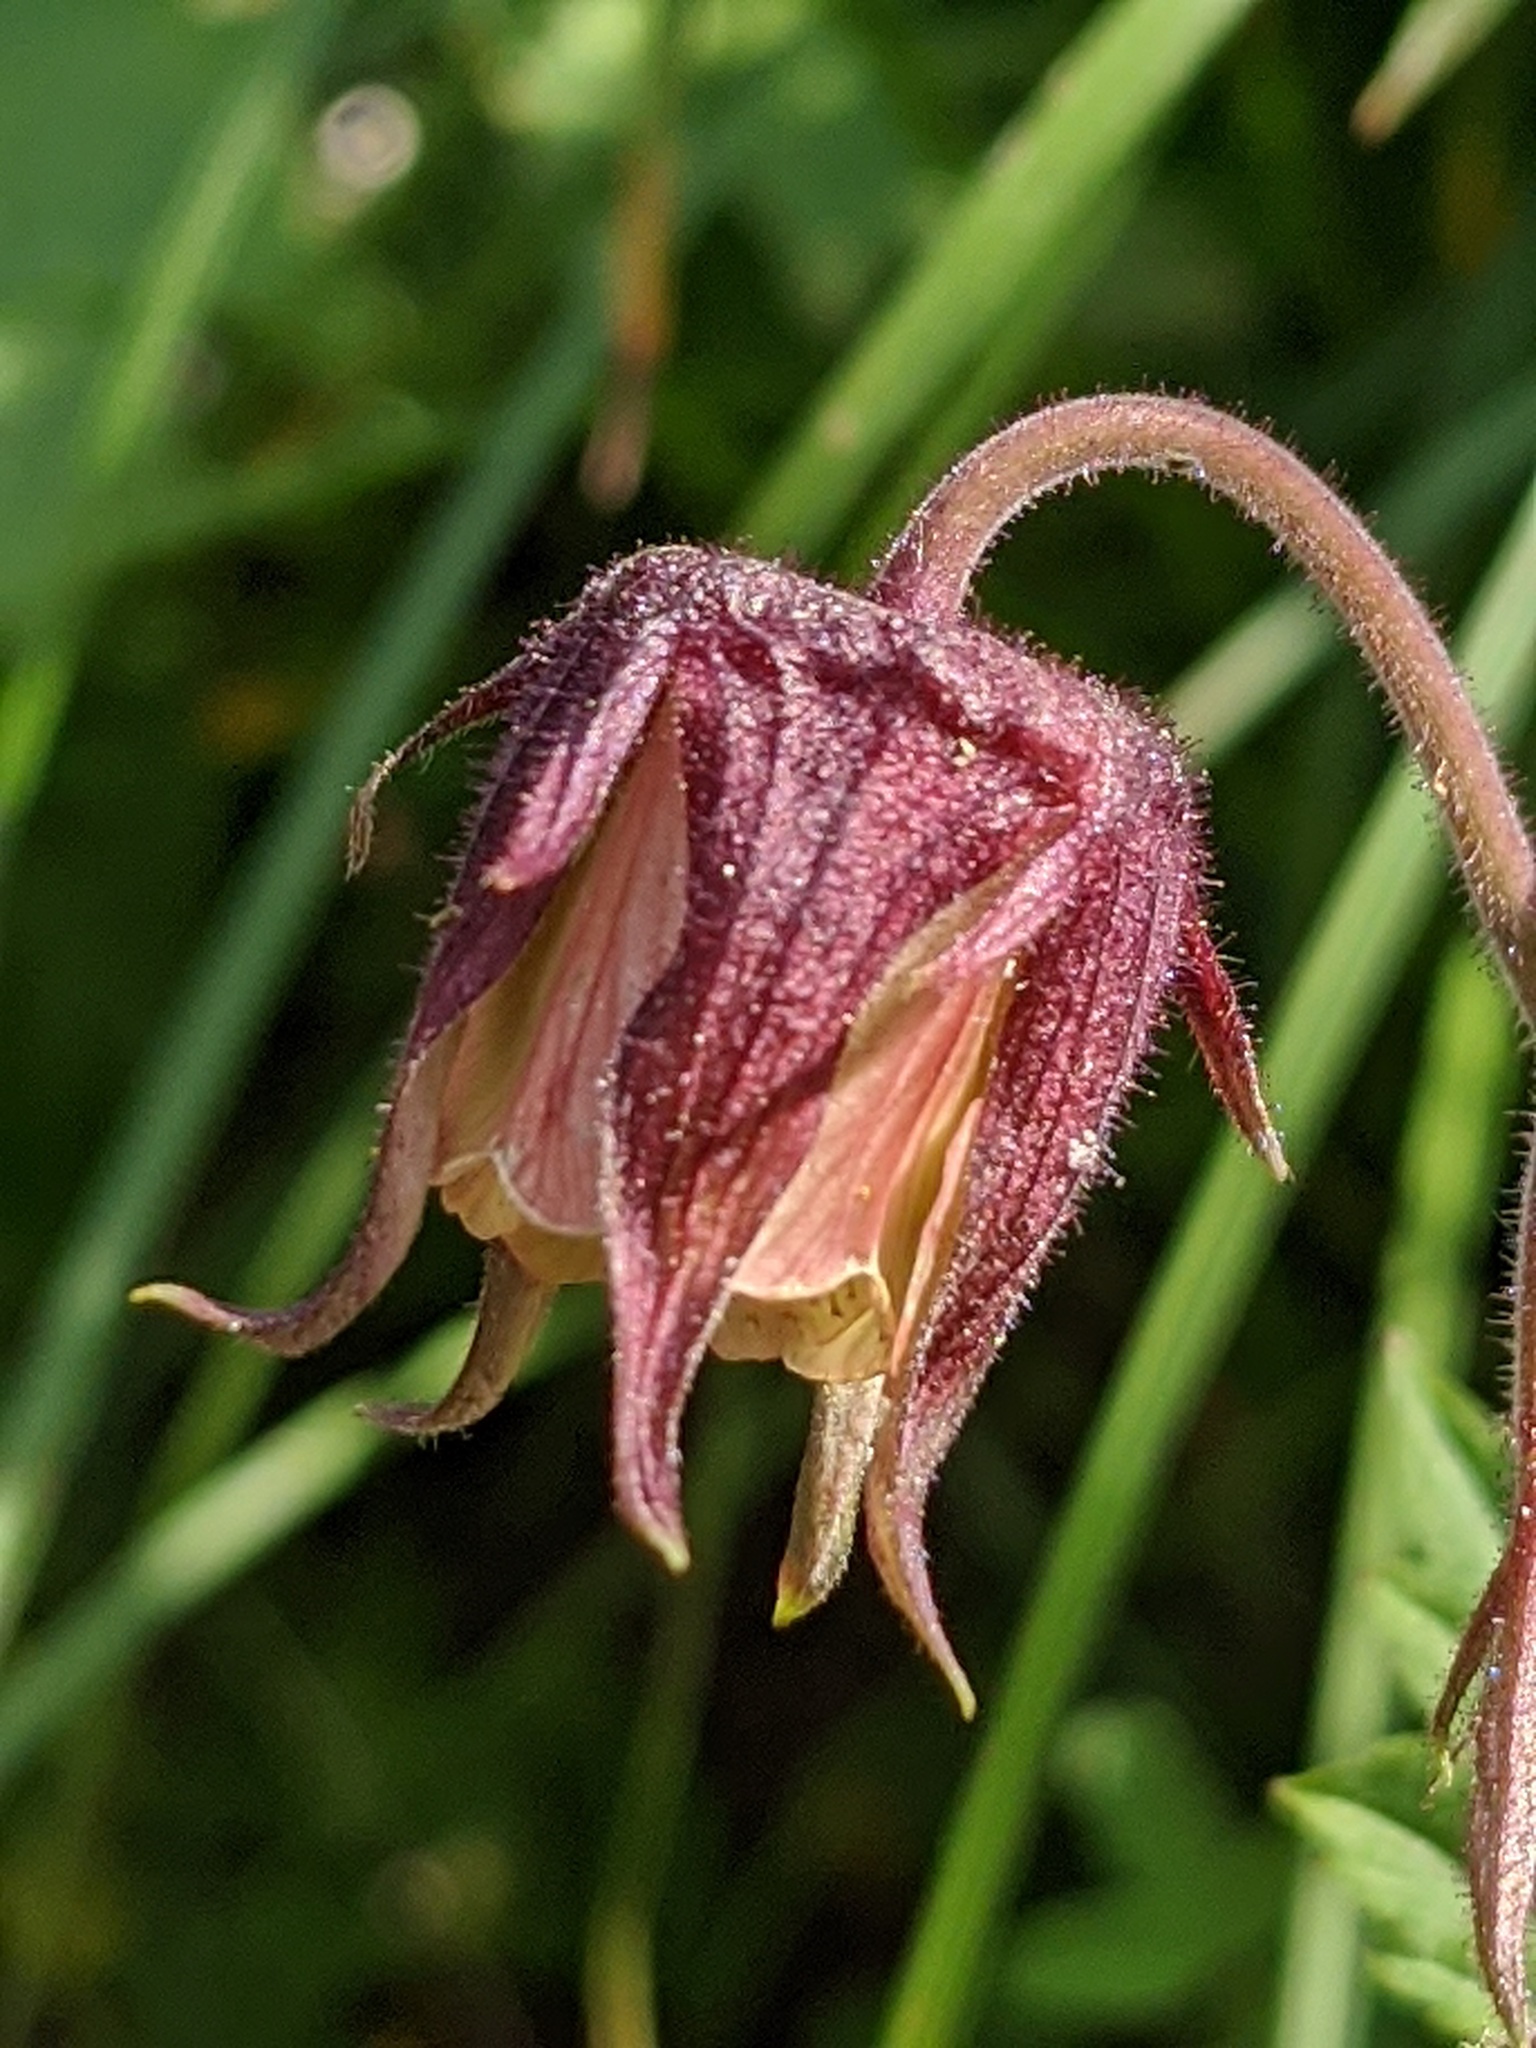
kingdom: Plantae
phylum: Tracheophyta
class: Magnoliopsida
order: Rosales
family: Rosaceae
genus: Geum
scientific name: Geum rivale
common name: Water avens
